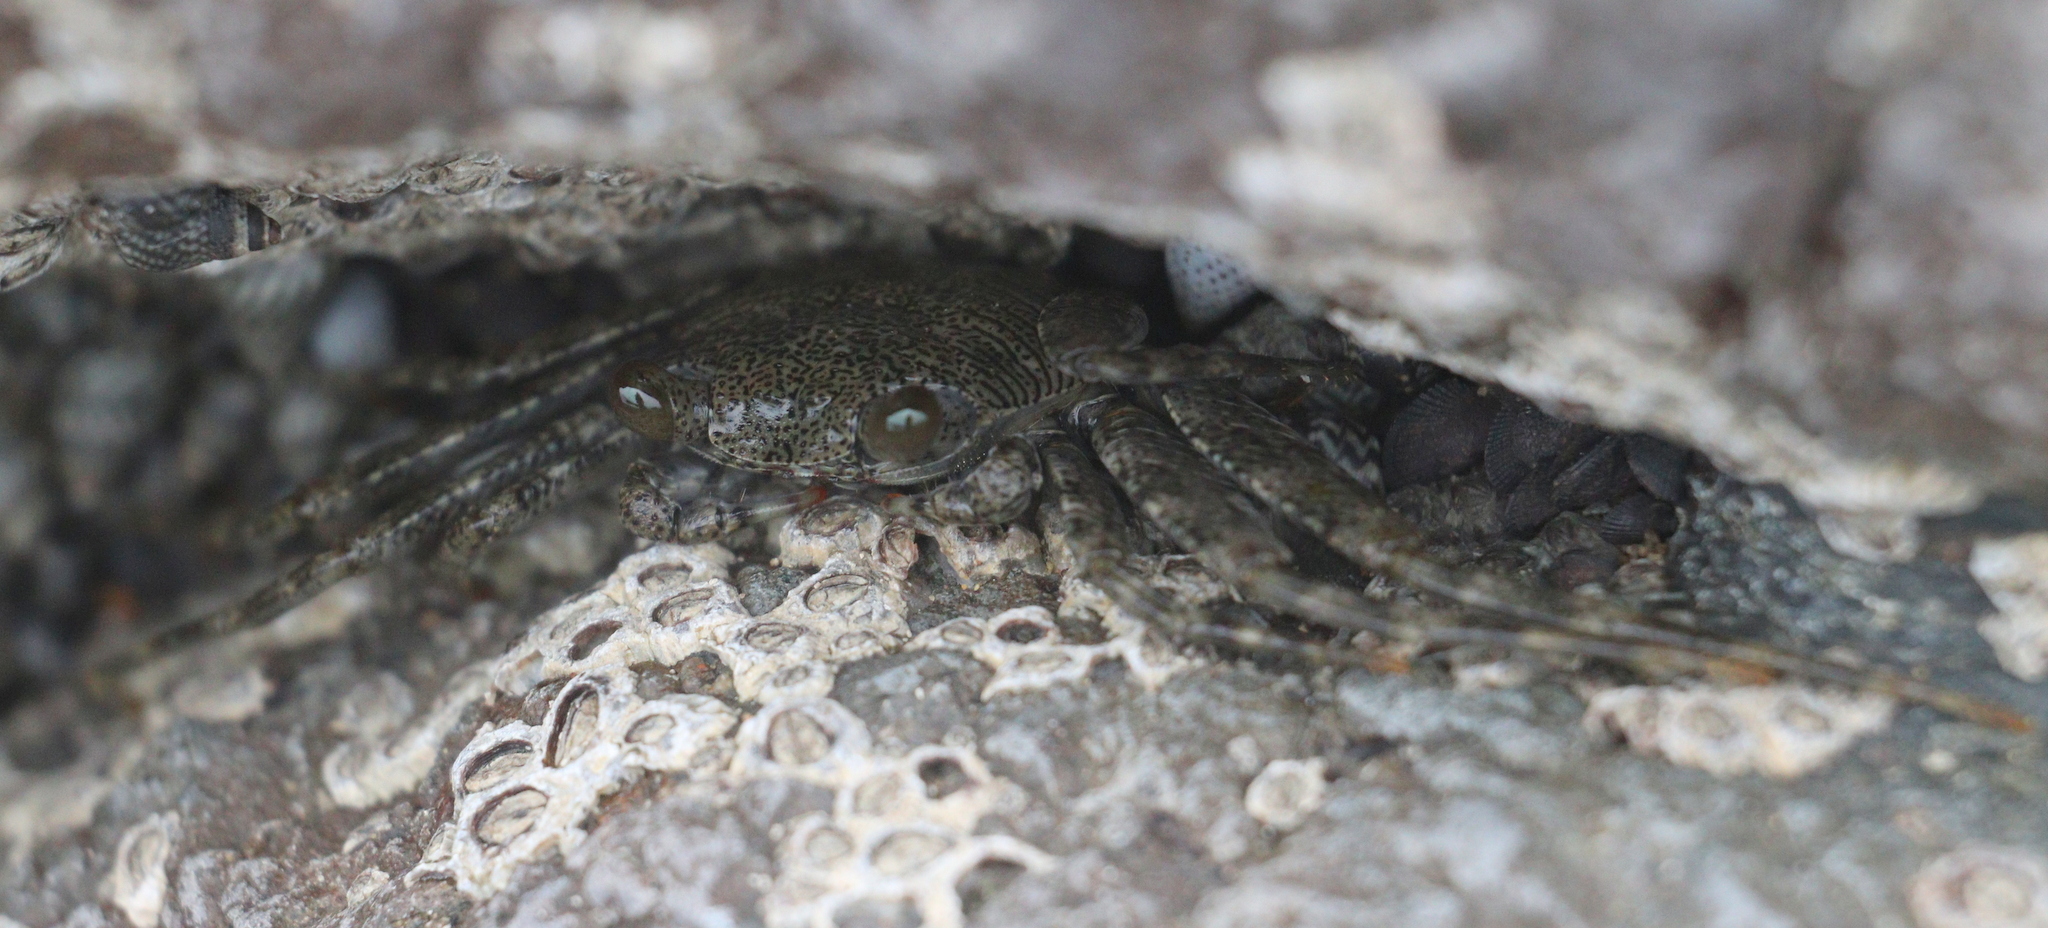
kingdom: Animalia
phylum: Arthropoda
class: Malacostraca
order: Decapoda
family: Grapsidae
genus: Grapsus
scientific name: Grapsus grapsus
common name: Sally lightfoot
